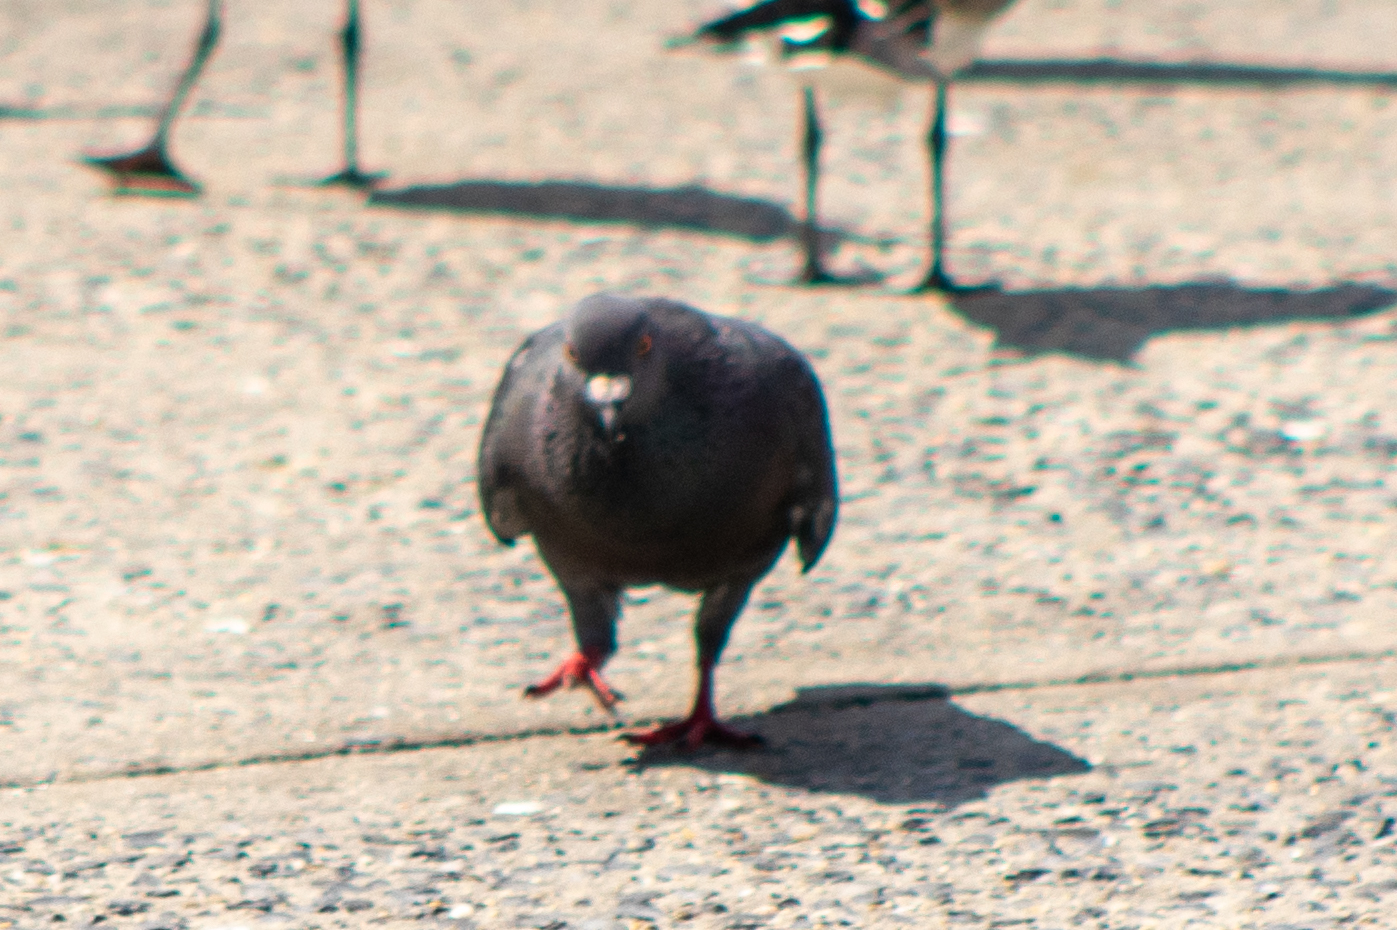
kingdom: Animalia
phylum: Chordata
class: Aves
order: Columbiformes
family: Columbidae
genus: Columba
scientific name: Columba livia
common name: Rock pigeon
